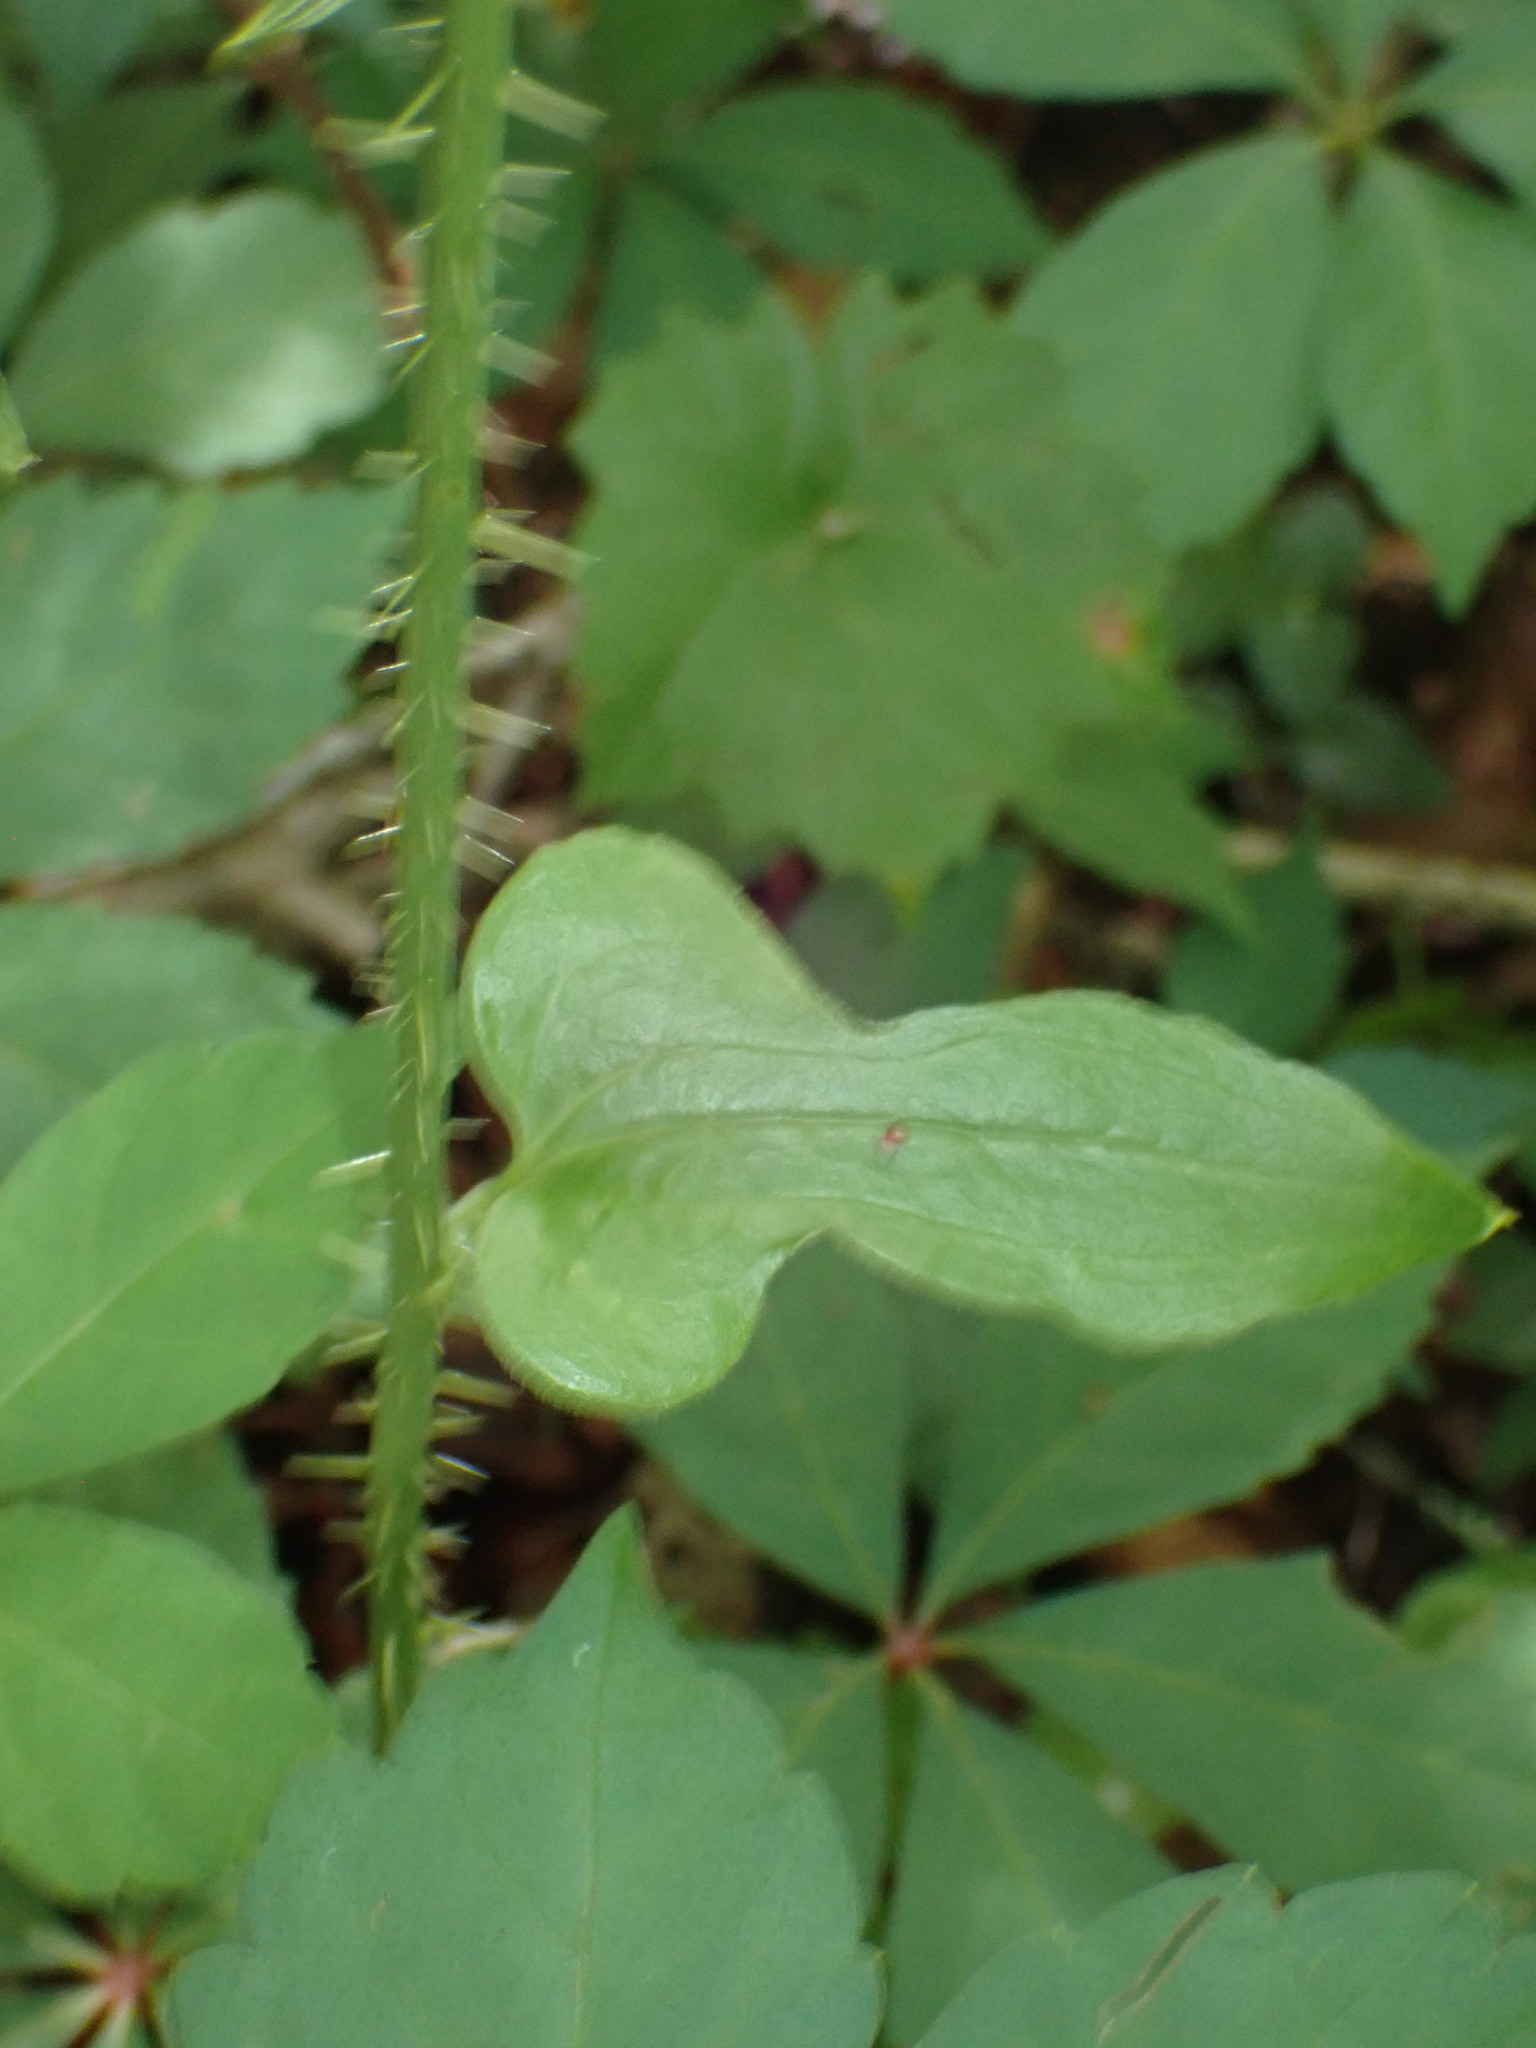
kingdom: Plantae
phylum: Tracheophyta
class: Liliopsida
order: Liliales
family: Smilacaceae
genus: Smilax
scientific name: Smilax tamnoides
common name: Hellfetter
